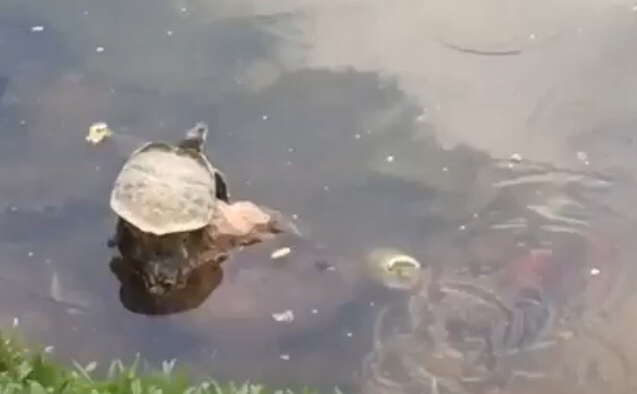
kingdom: Animalia
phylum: Chordata
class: Testudines
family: Emydidae
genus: Trachemys
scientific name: Trachemys scripta
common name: Slider
